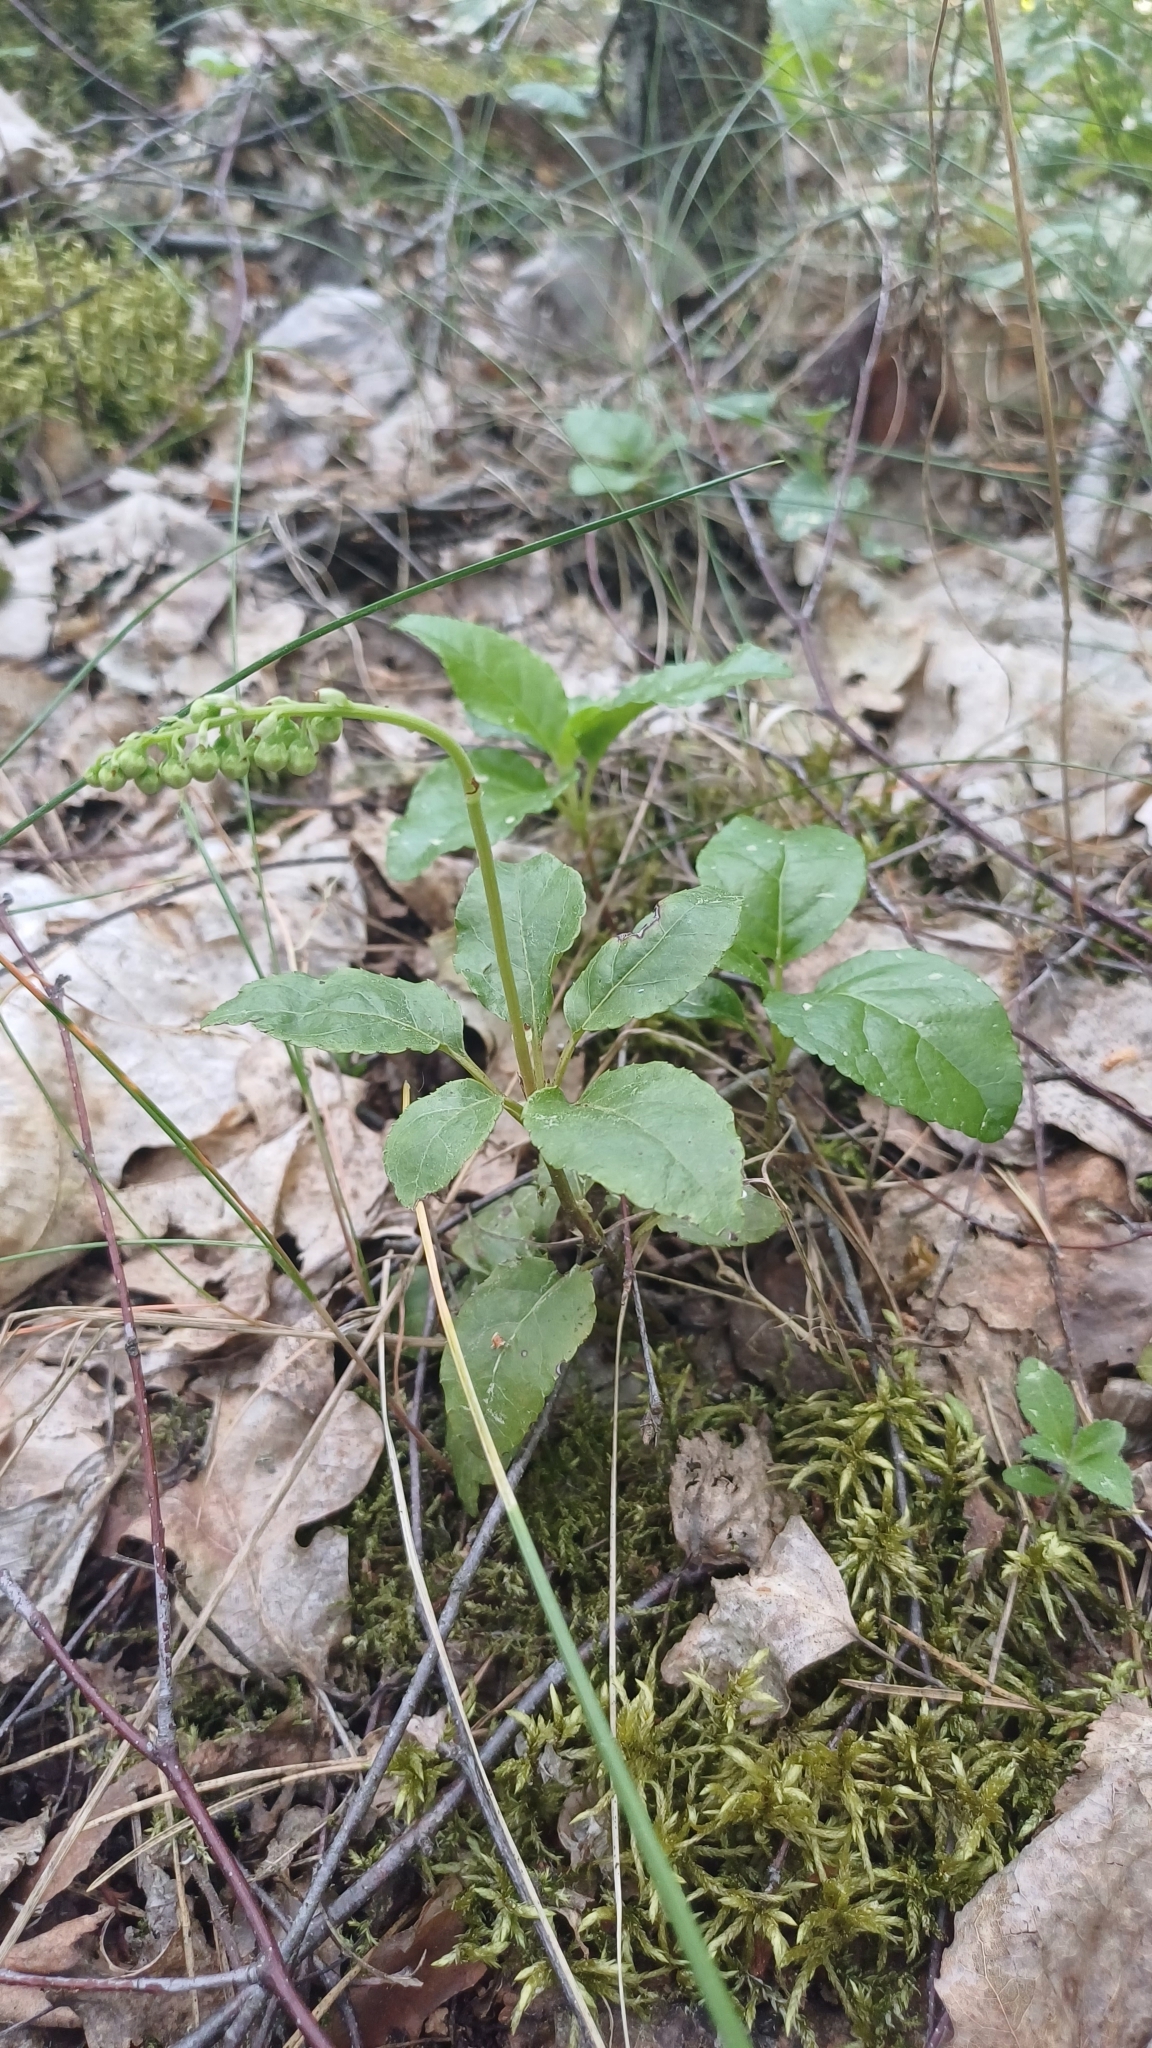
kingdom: Plantae
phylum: Tracheophyta
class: Magnoliopsida
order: Ericales
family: Ericaceae
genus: Orthilia
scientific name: Orthilia secunda
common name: One-sided orthilia
